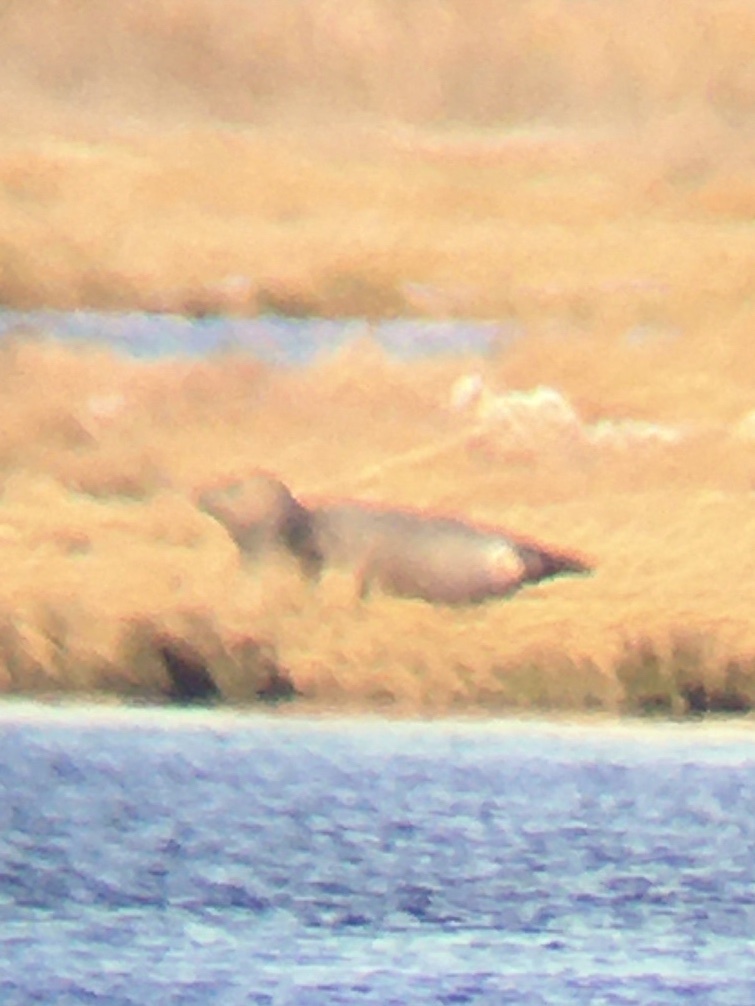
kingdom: Animalia
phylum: Chordata
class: Mammalia
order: Carnivora
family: Phocidae
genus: Phoca
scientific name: Phoca vitulina
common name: Harbor seal
